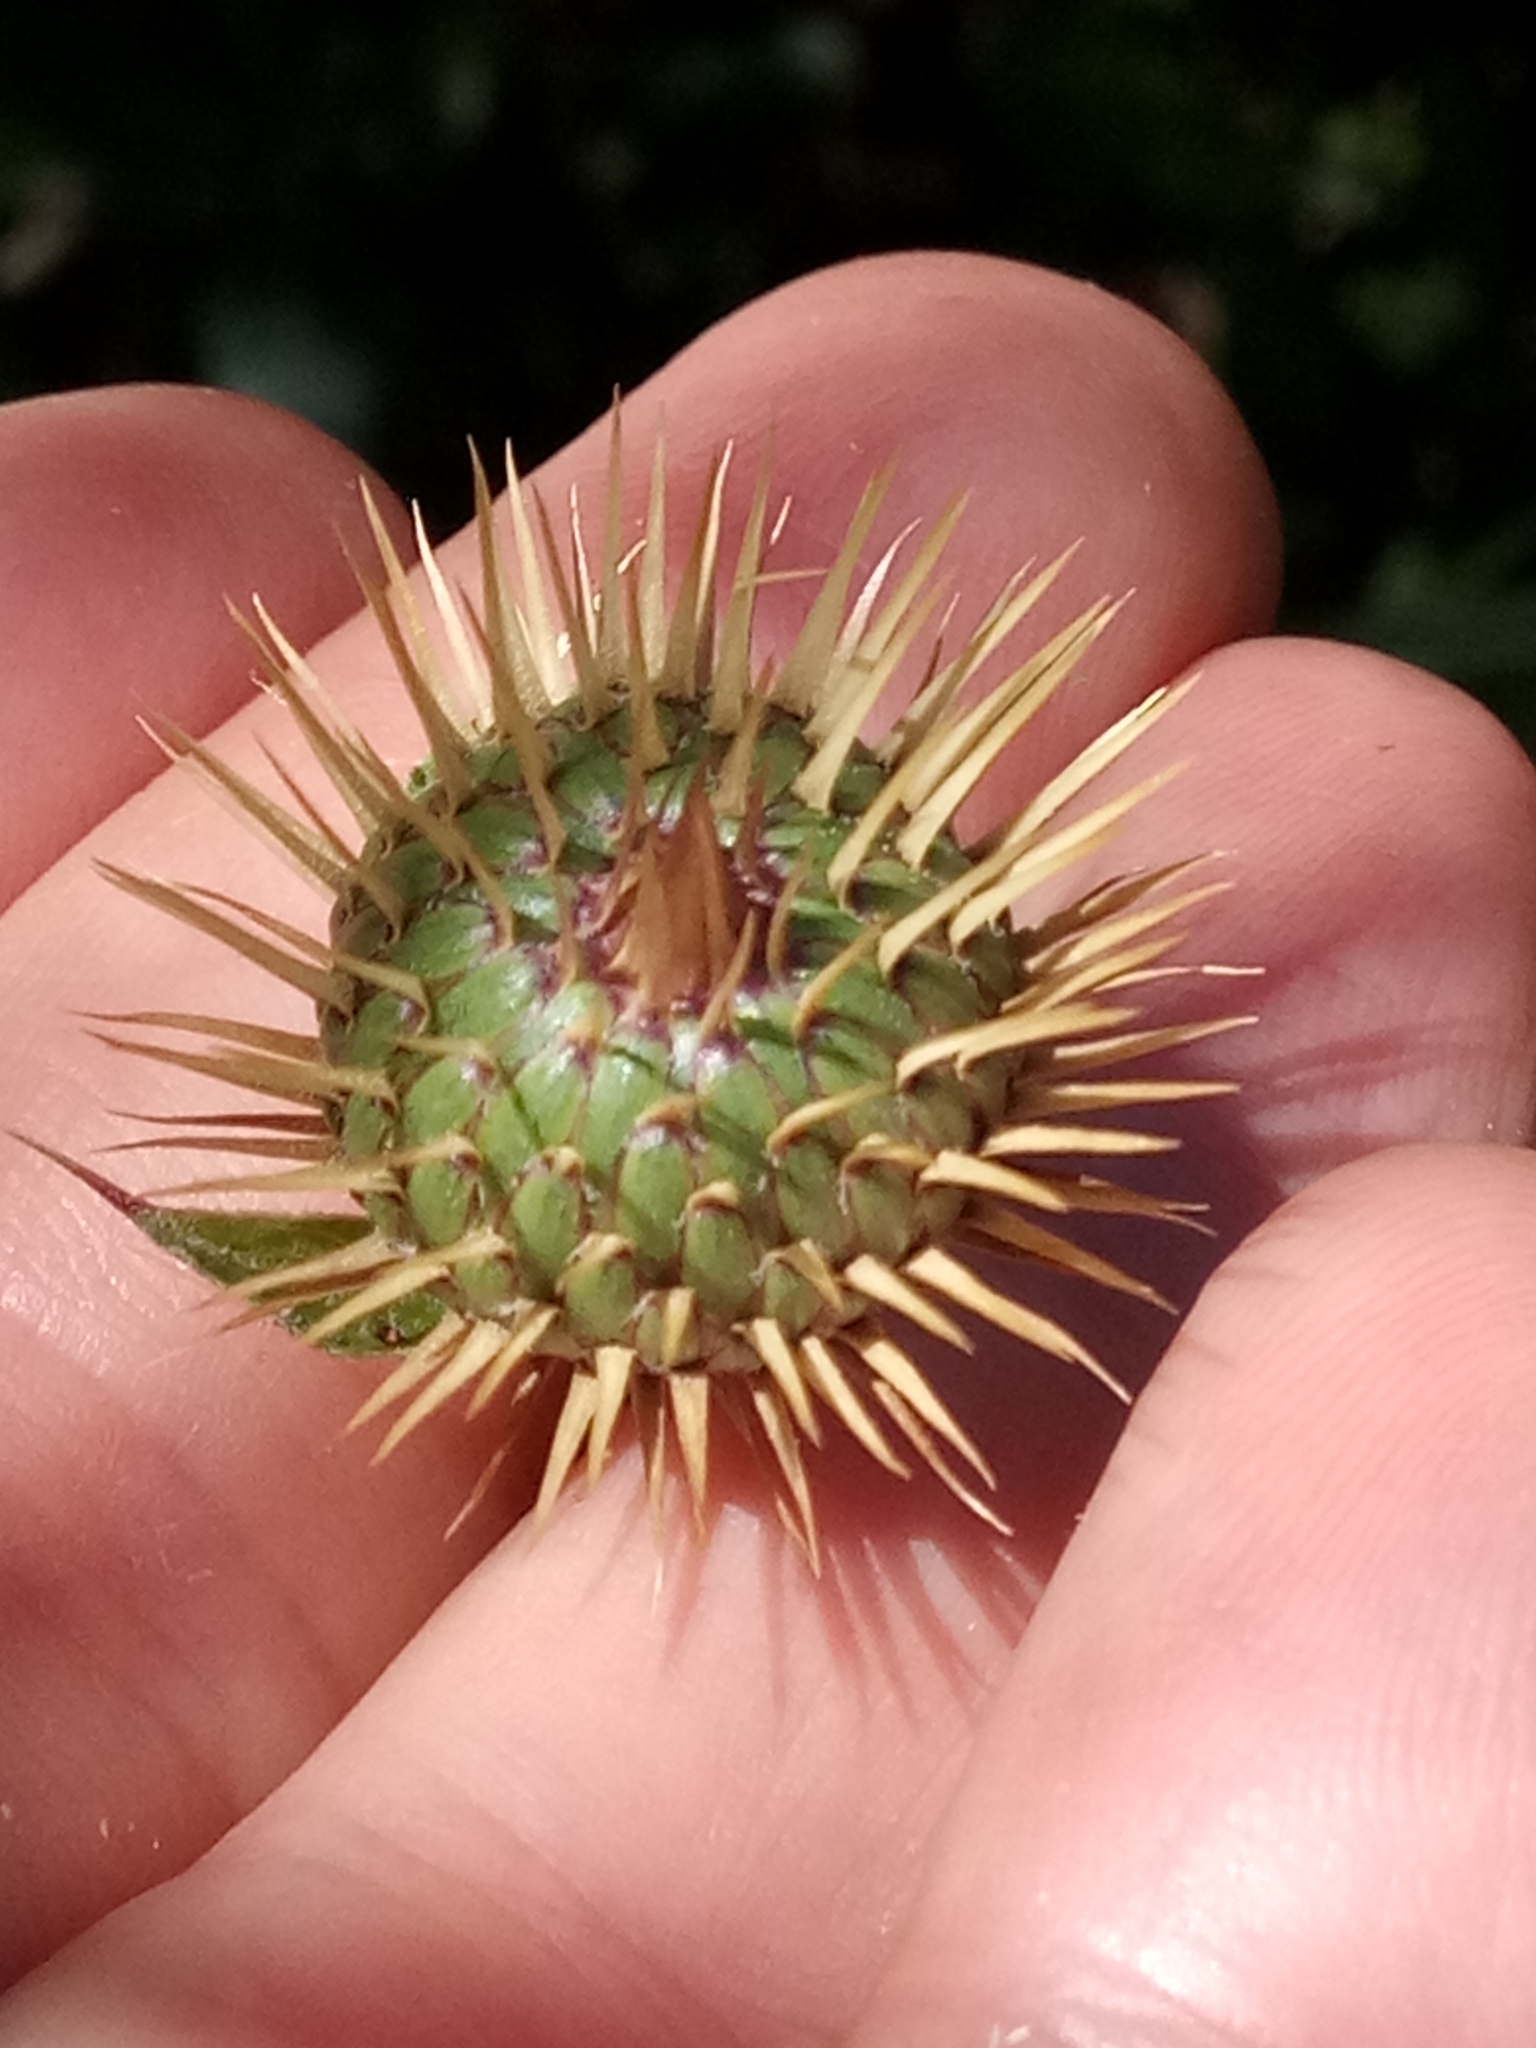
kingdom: Plantae
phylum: Tracheophyta
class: Magnoliopsida
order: Asterales
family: Asteraceae
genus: Klasea
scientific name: Klasea flavescens
